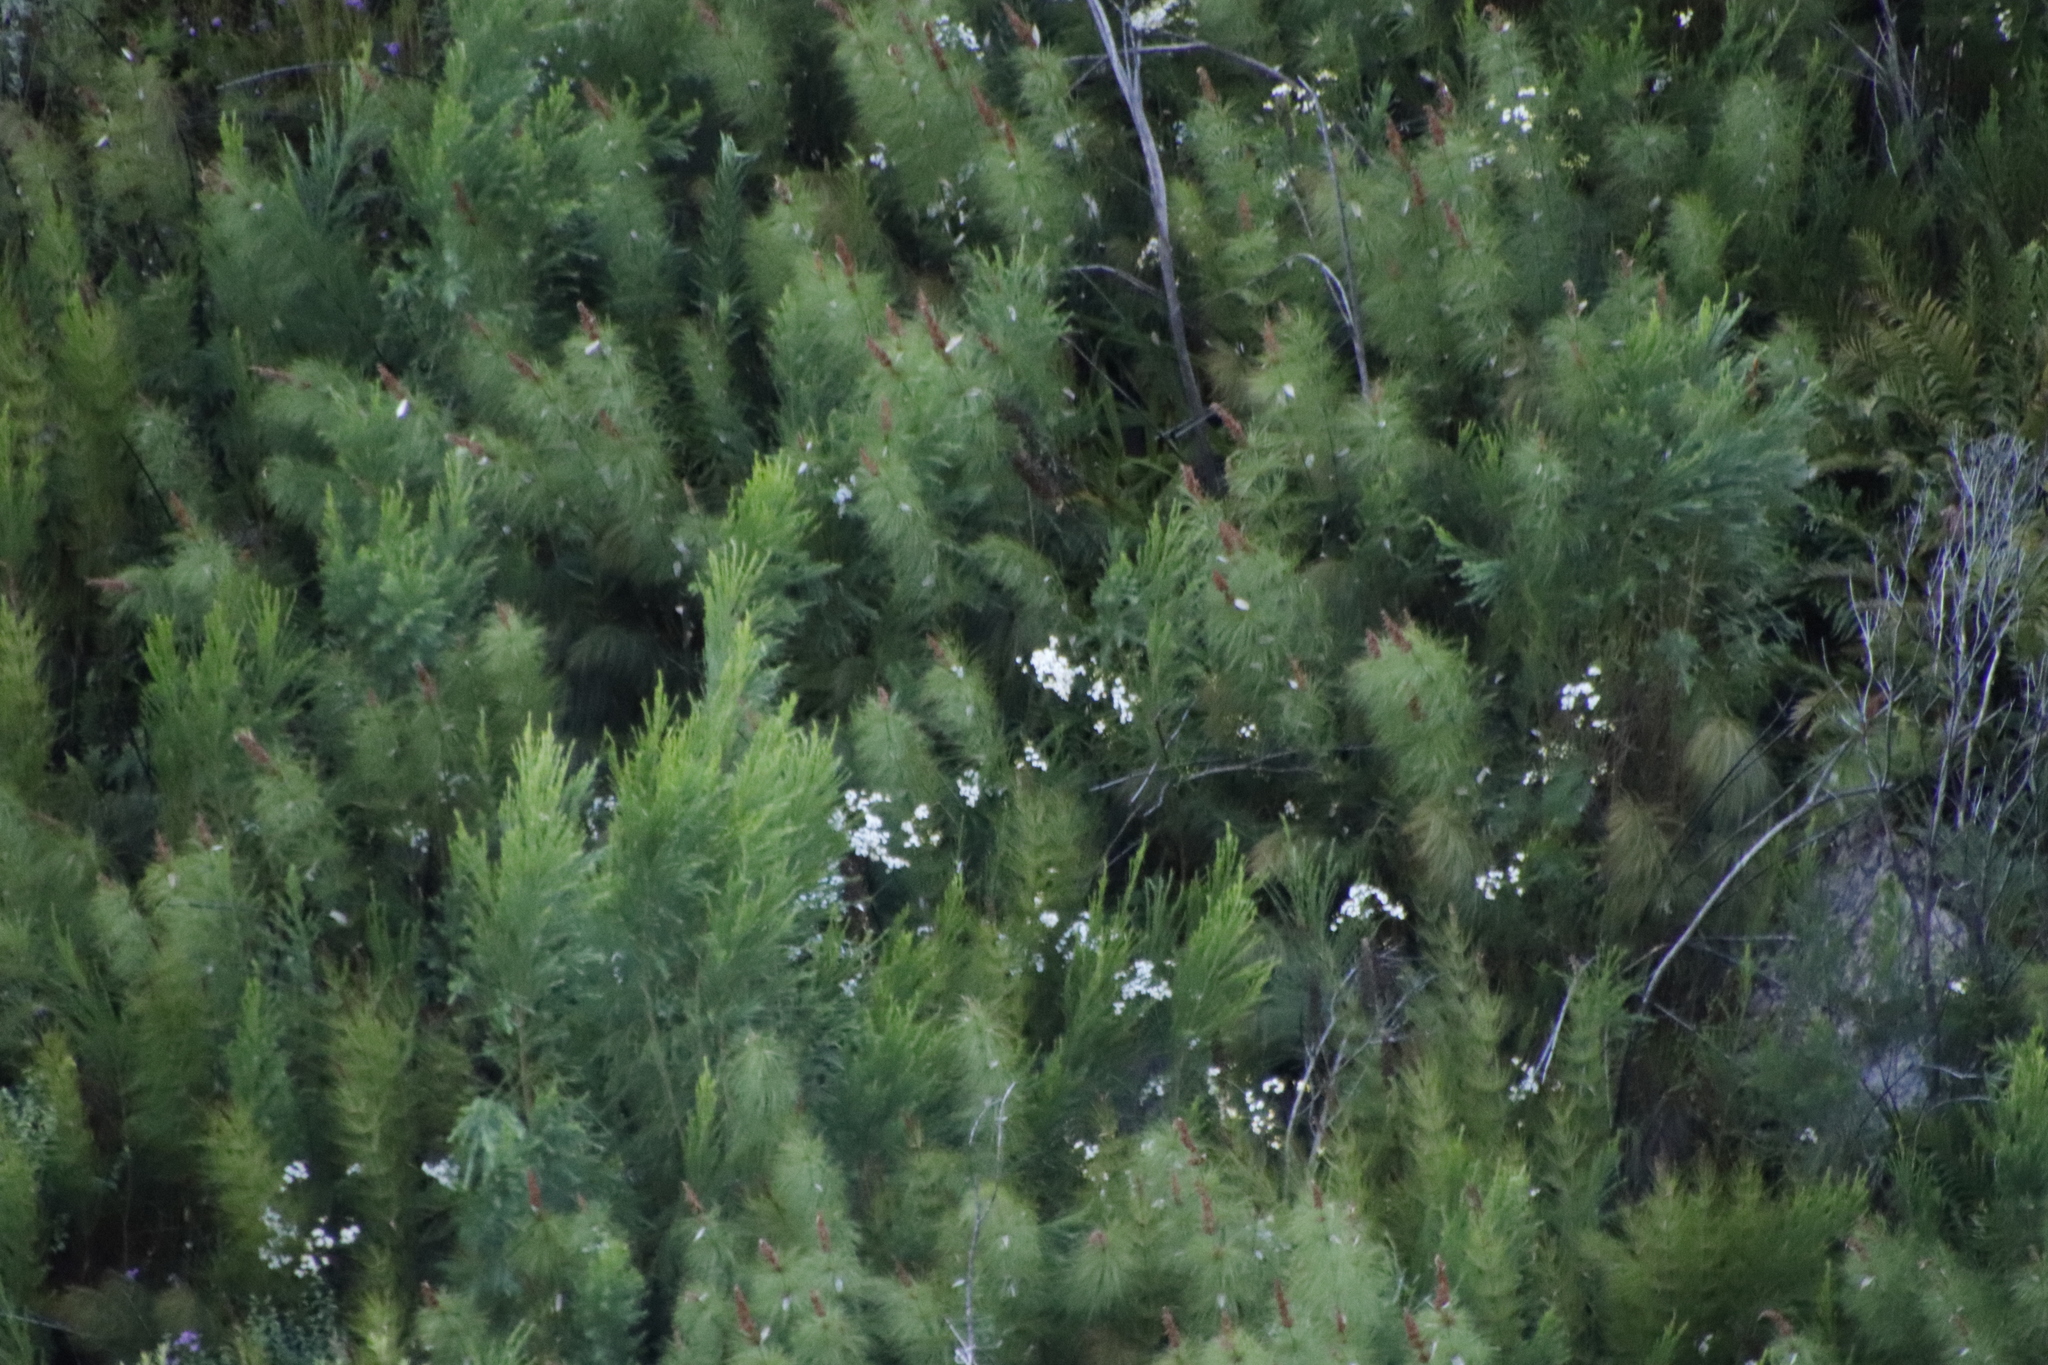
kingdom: Plantae
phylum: Tracheophyta
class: Liliopsida
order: Poales
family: Restionaceae
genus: Elegia
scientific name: Elegia capensis
